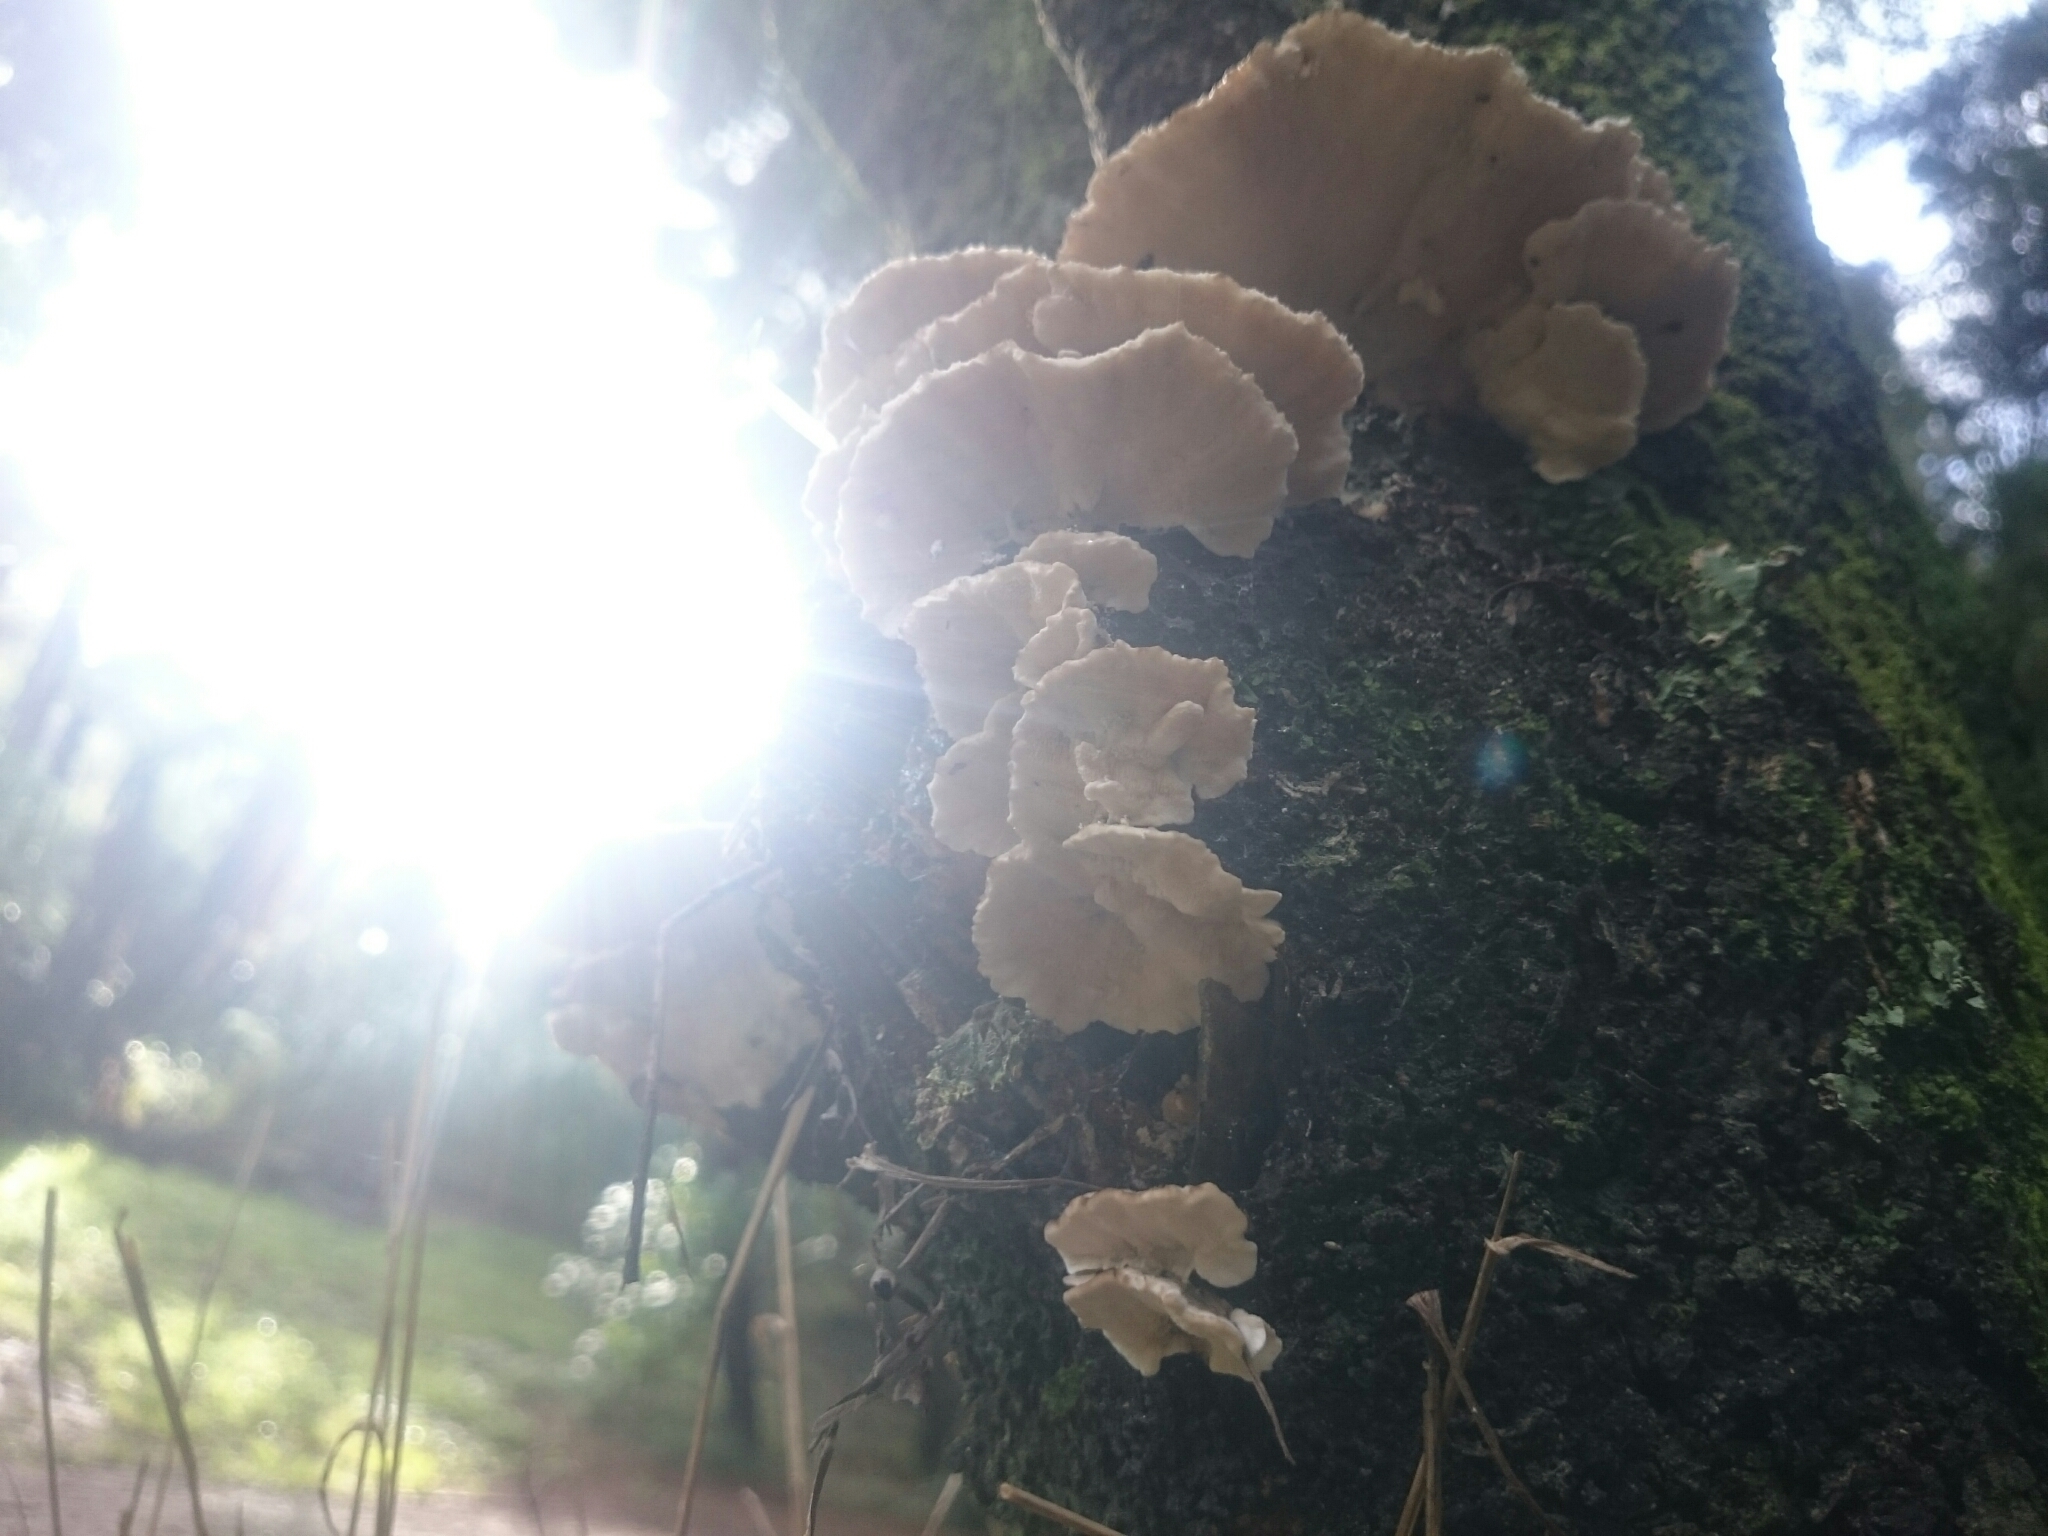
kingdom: Fungi
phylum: Basidiomycota
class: Agaricomycetes
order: Polyporales
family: Polyporaceae
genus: Trametes
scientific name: Trametes versicolor
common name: Turkeytail
